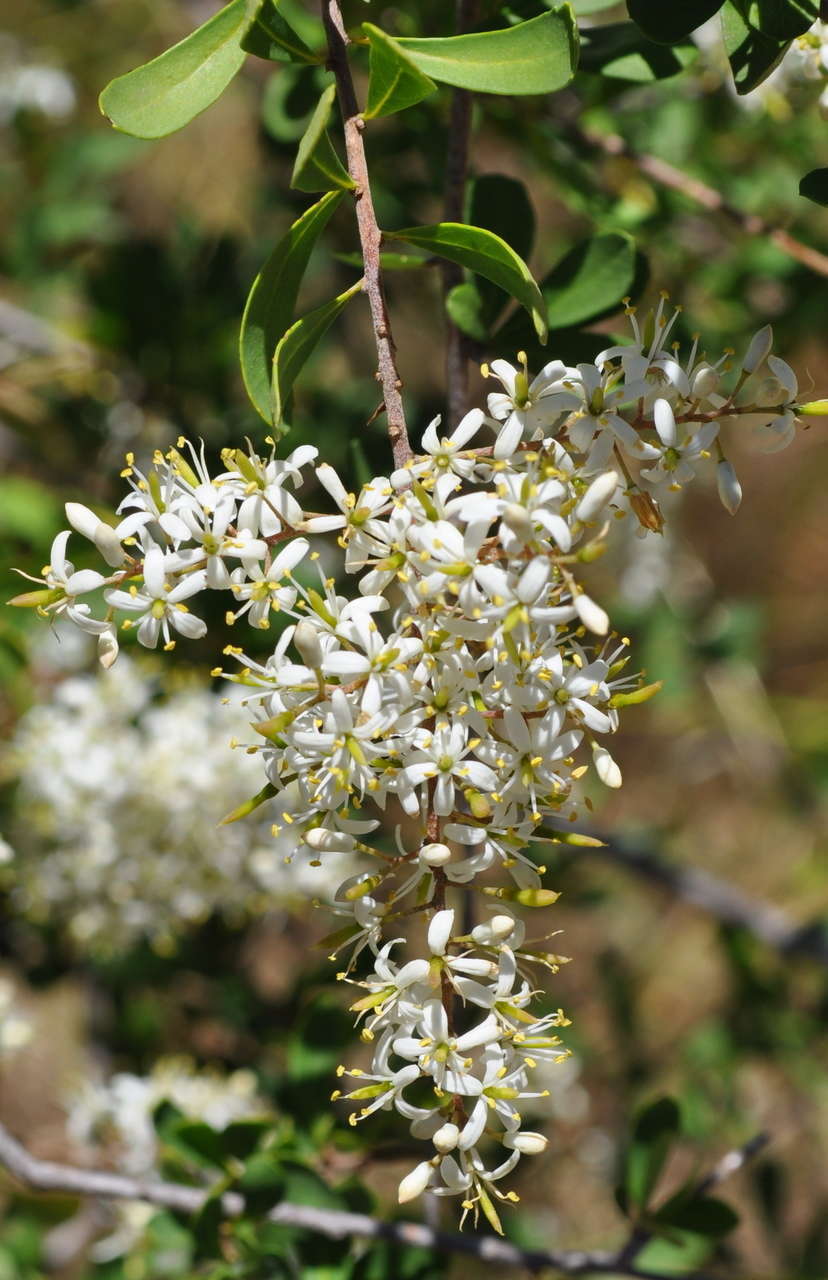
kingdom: Plantae
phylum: Tracheophyta
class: Magnoliopsida
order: Apiales
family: Pittosporaceae
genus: Bursaria
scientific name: Bursaria spinosa
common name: Australian blackthorn
